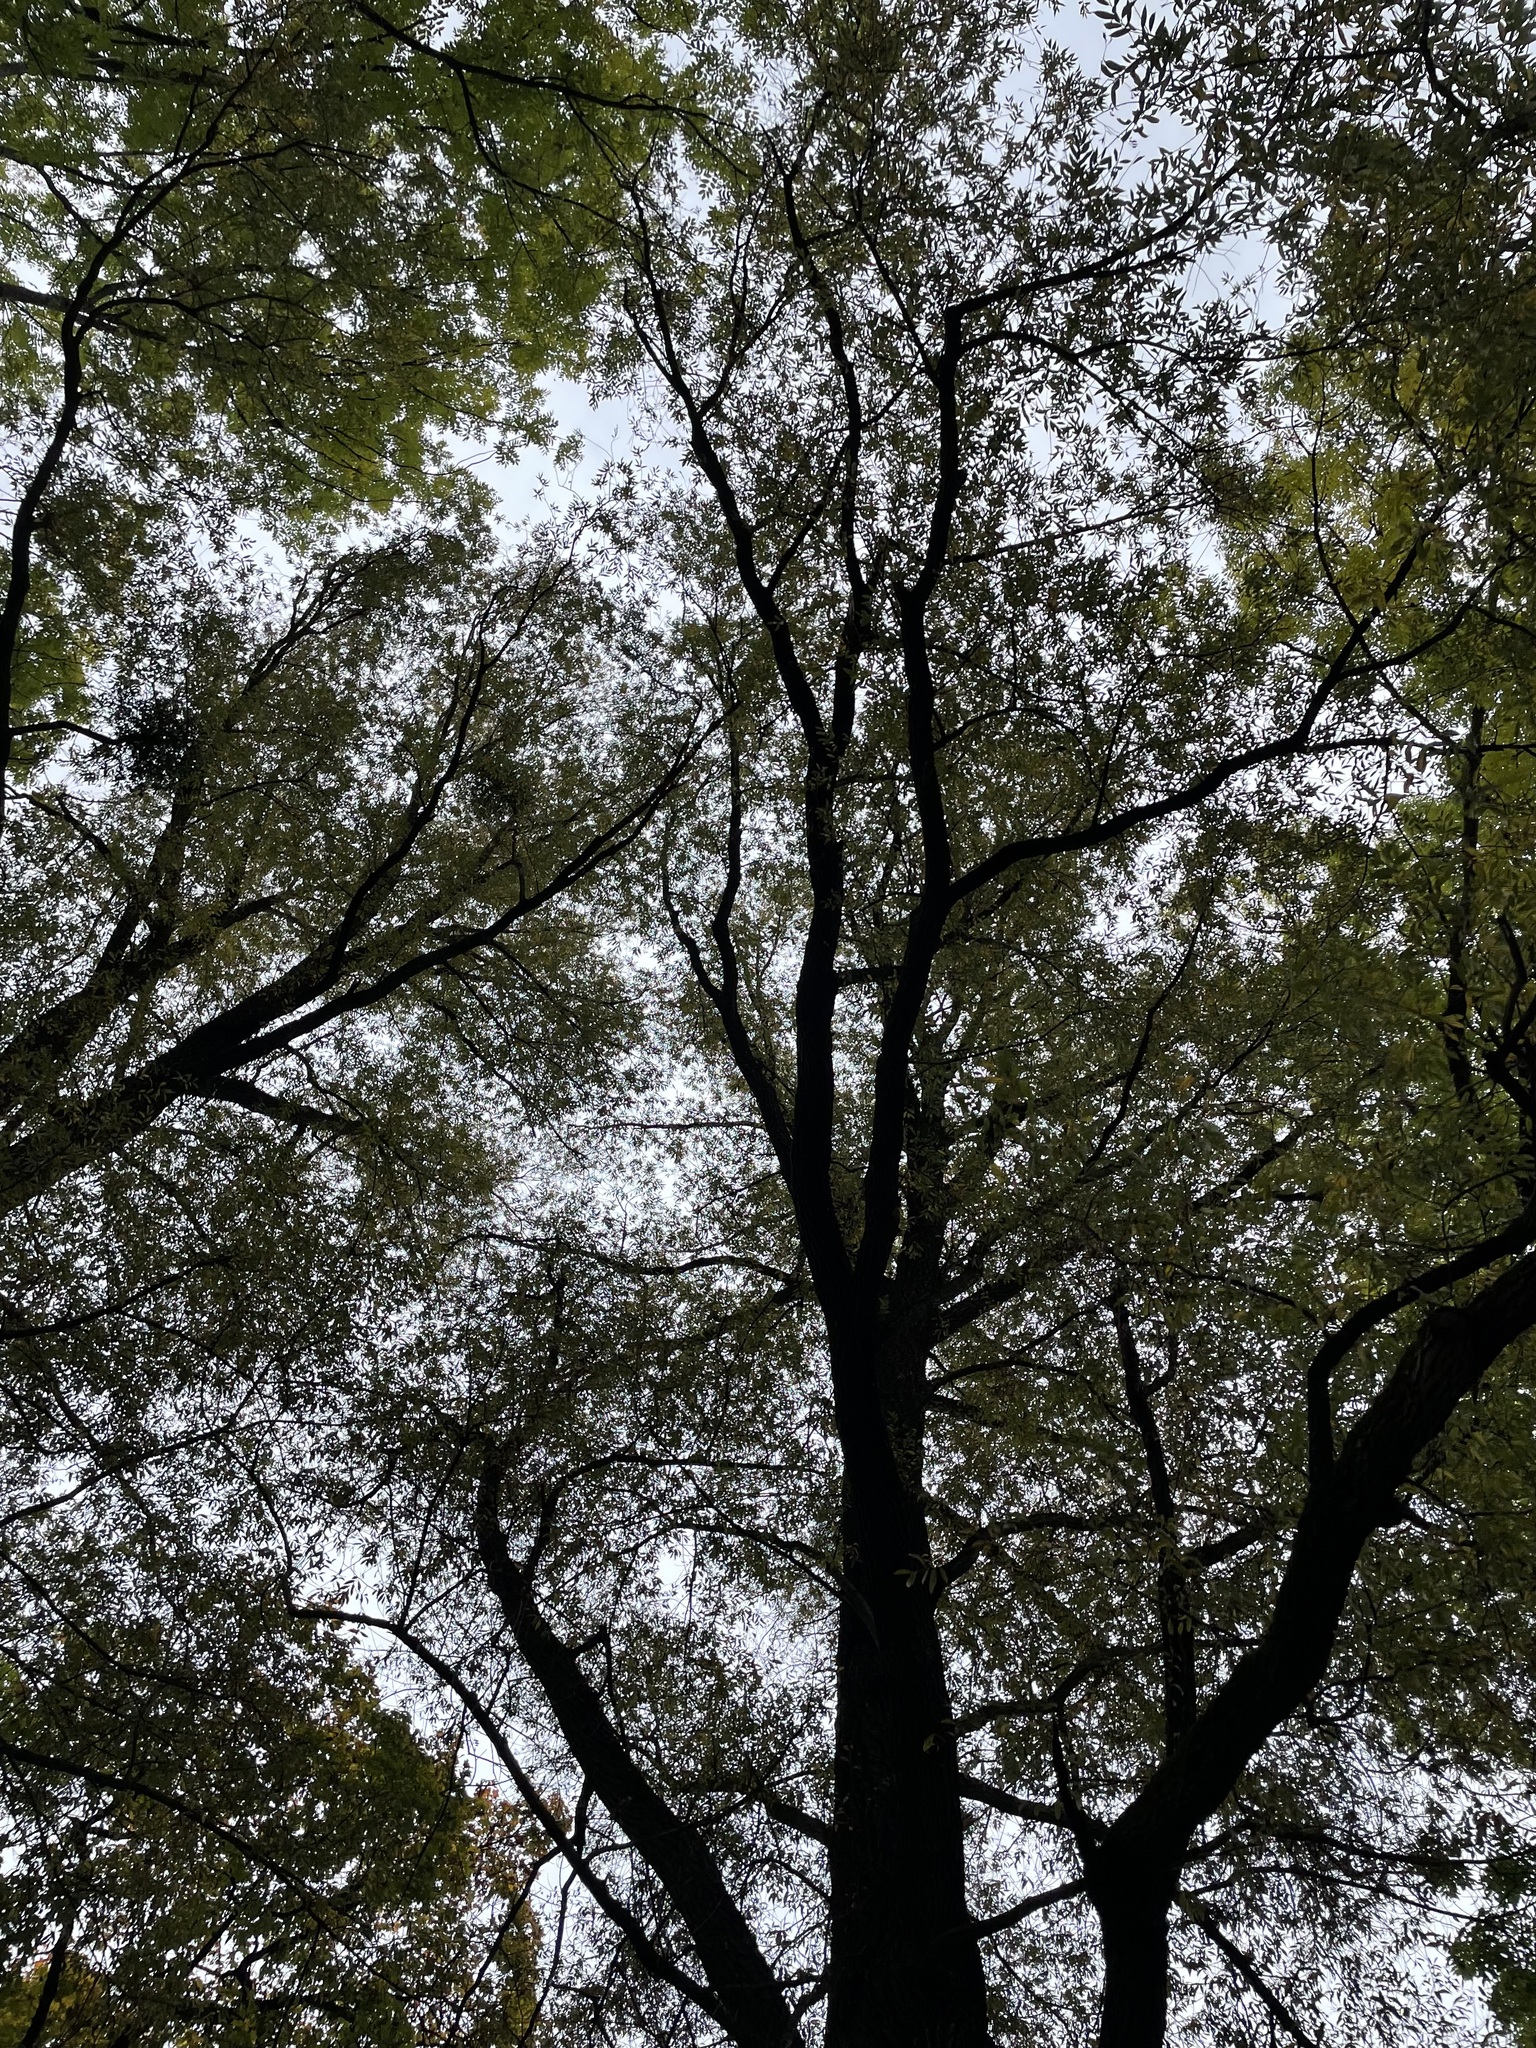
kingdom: Plantae
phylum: Tracheophyta
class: Magnoliopsida
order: Lamiales
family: Oleaceae
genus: Fraxinus
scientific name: Fraxinus excelsior
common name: European ash
